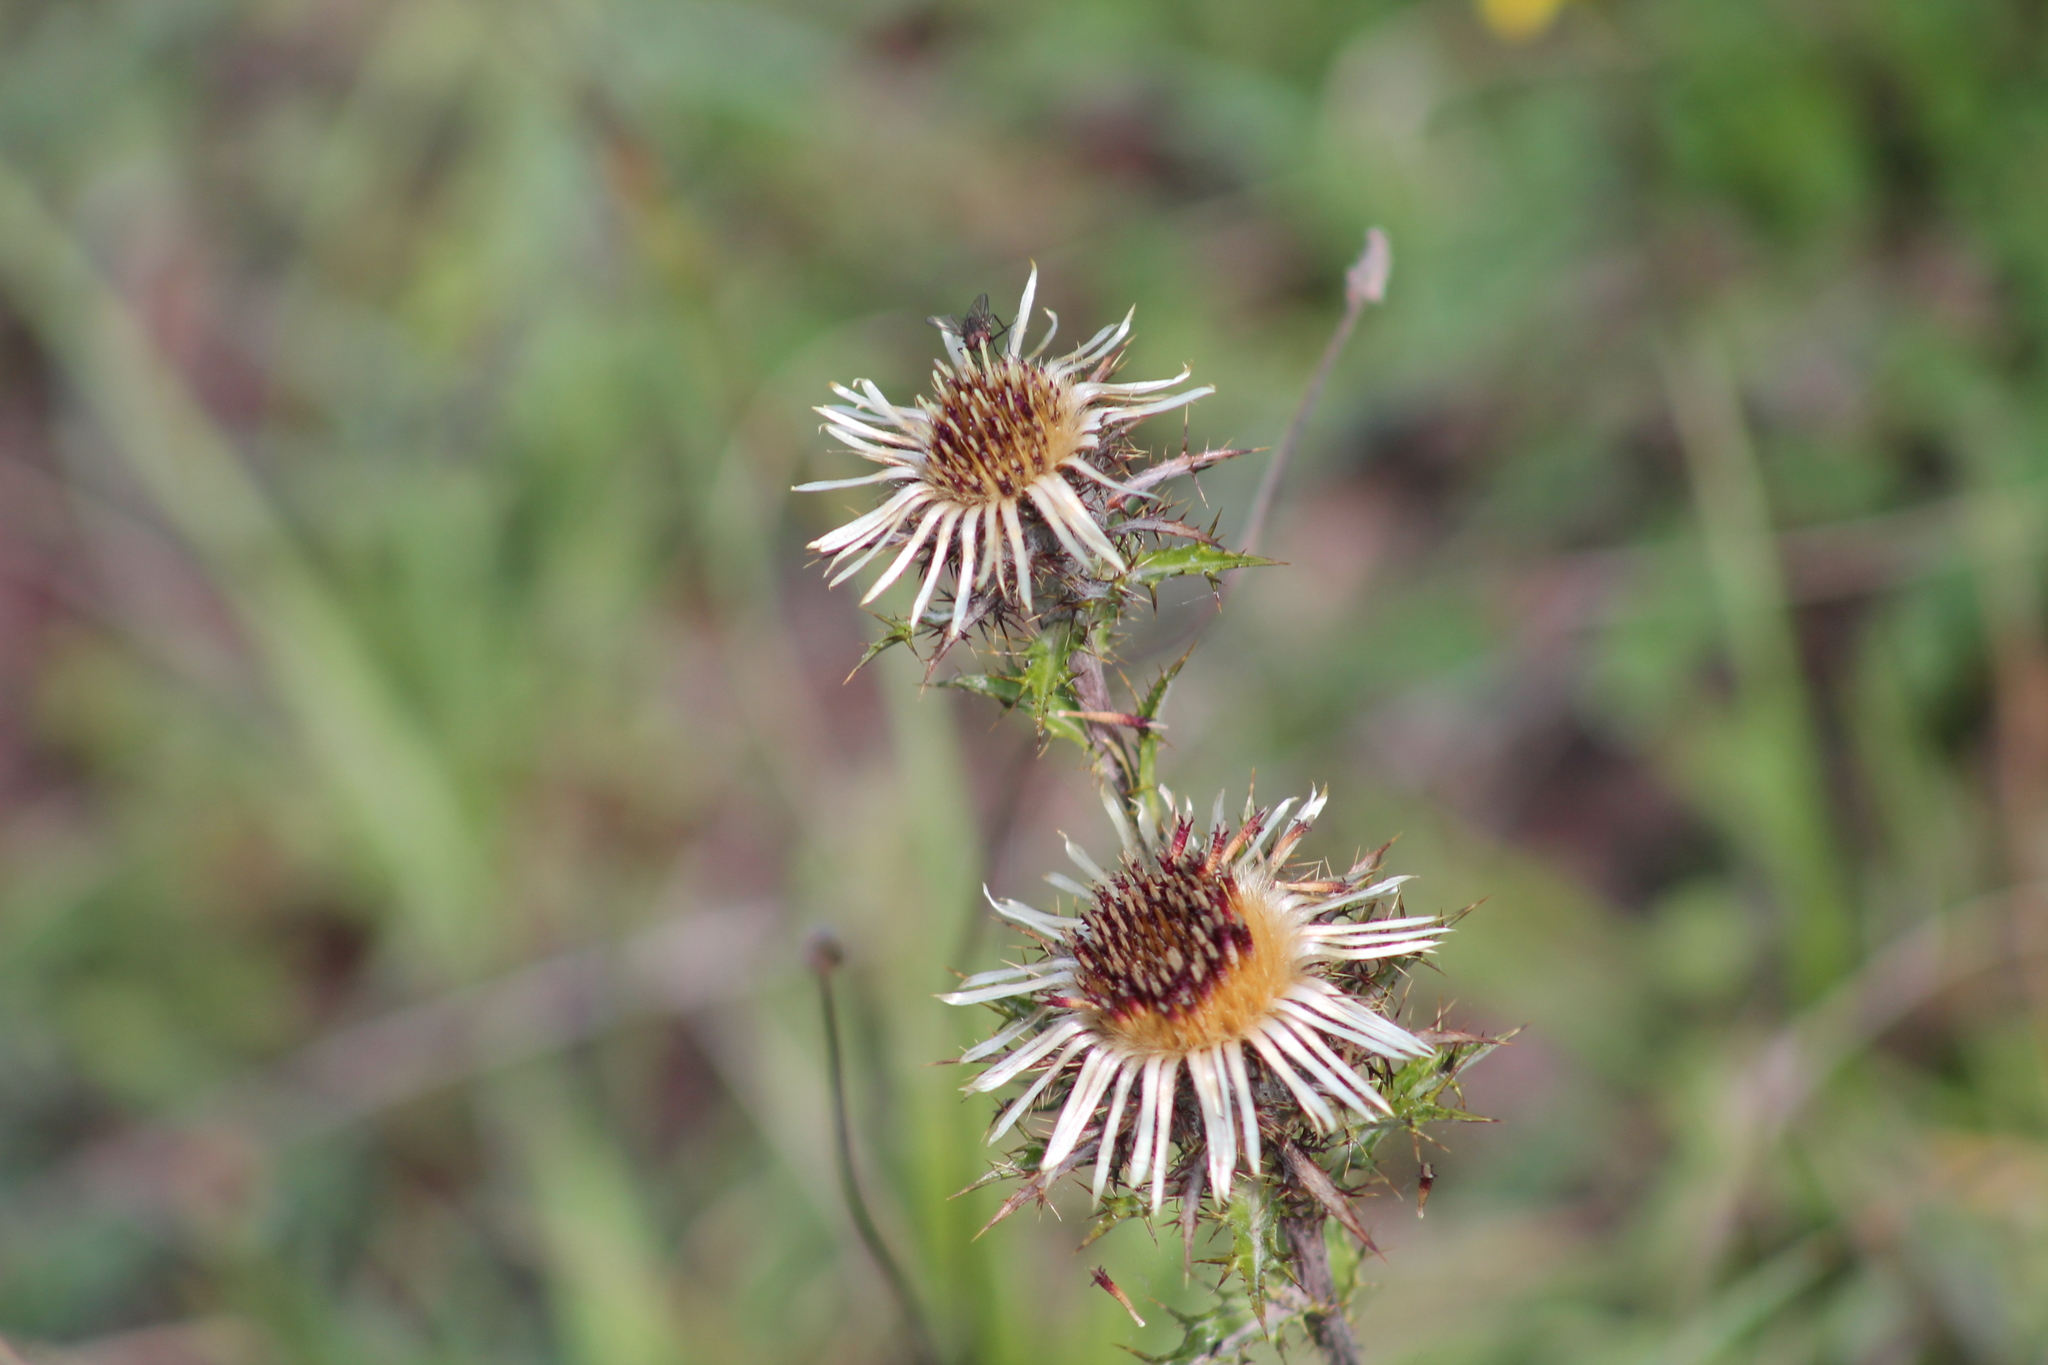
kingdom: Plantae
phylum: Tracheophyta
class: Magnoliopsida
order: Asterales
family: Asteraceae
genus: Carlina
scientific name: Carlina vulgaris
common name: Carline thistle
